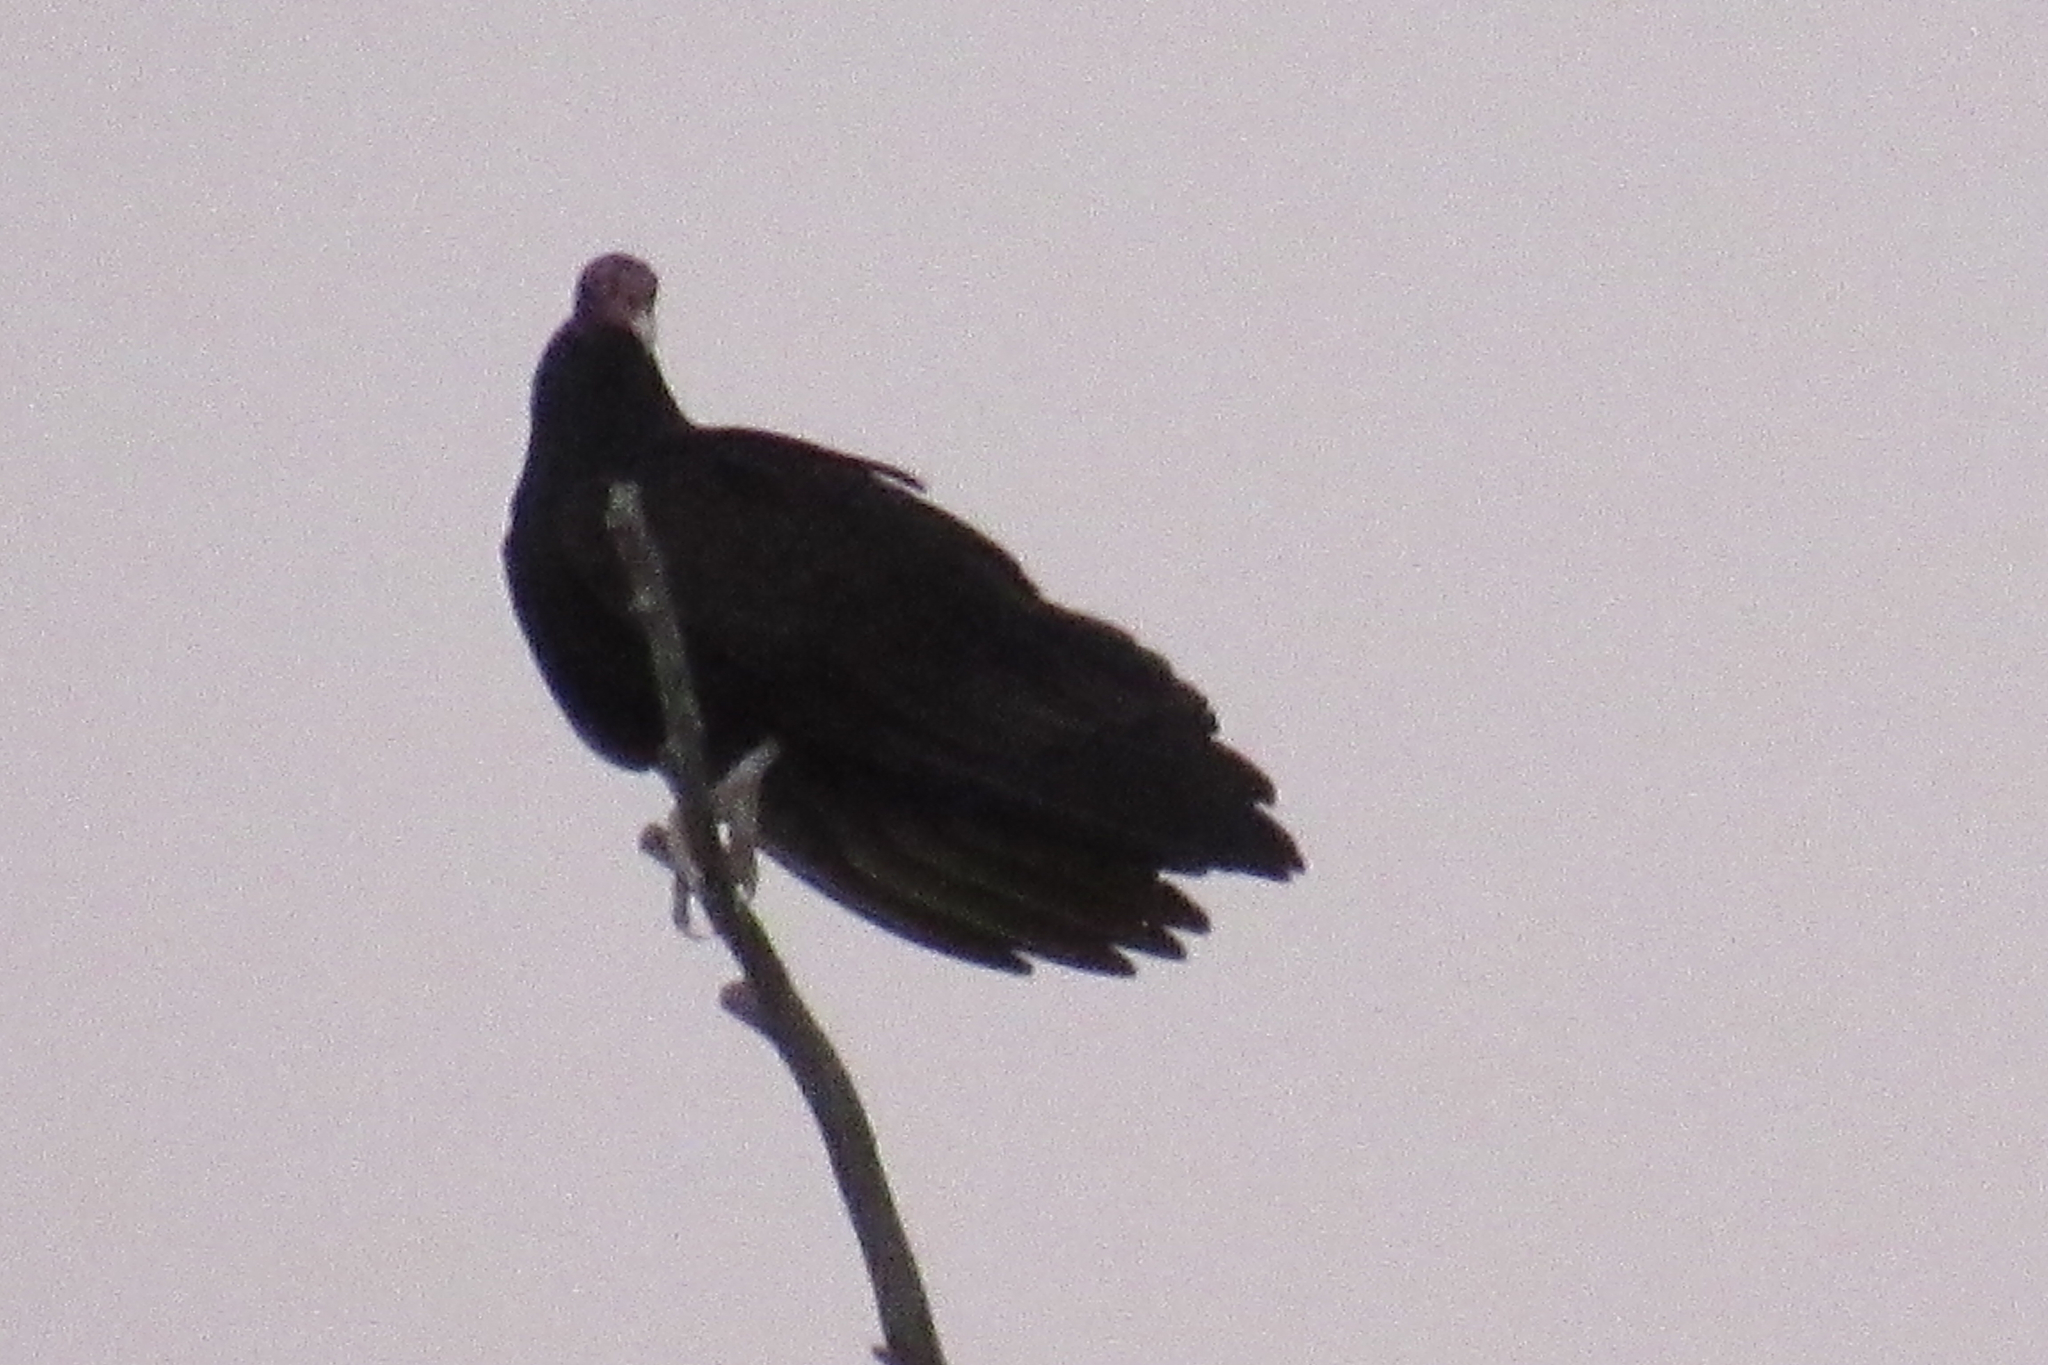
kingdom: Animalia
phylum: Chordata
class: Aves
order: Accipitriformes
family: Cathartidae
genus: Cathartes
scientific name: Cathartes aura
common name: Turkey vulture
